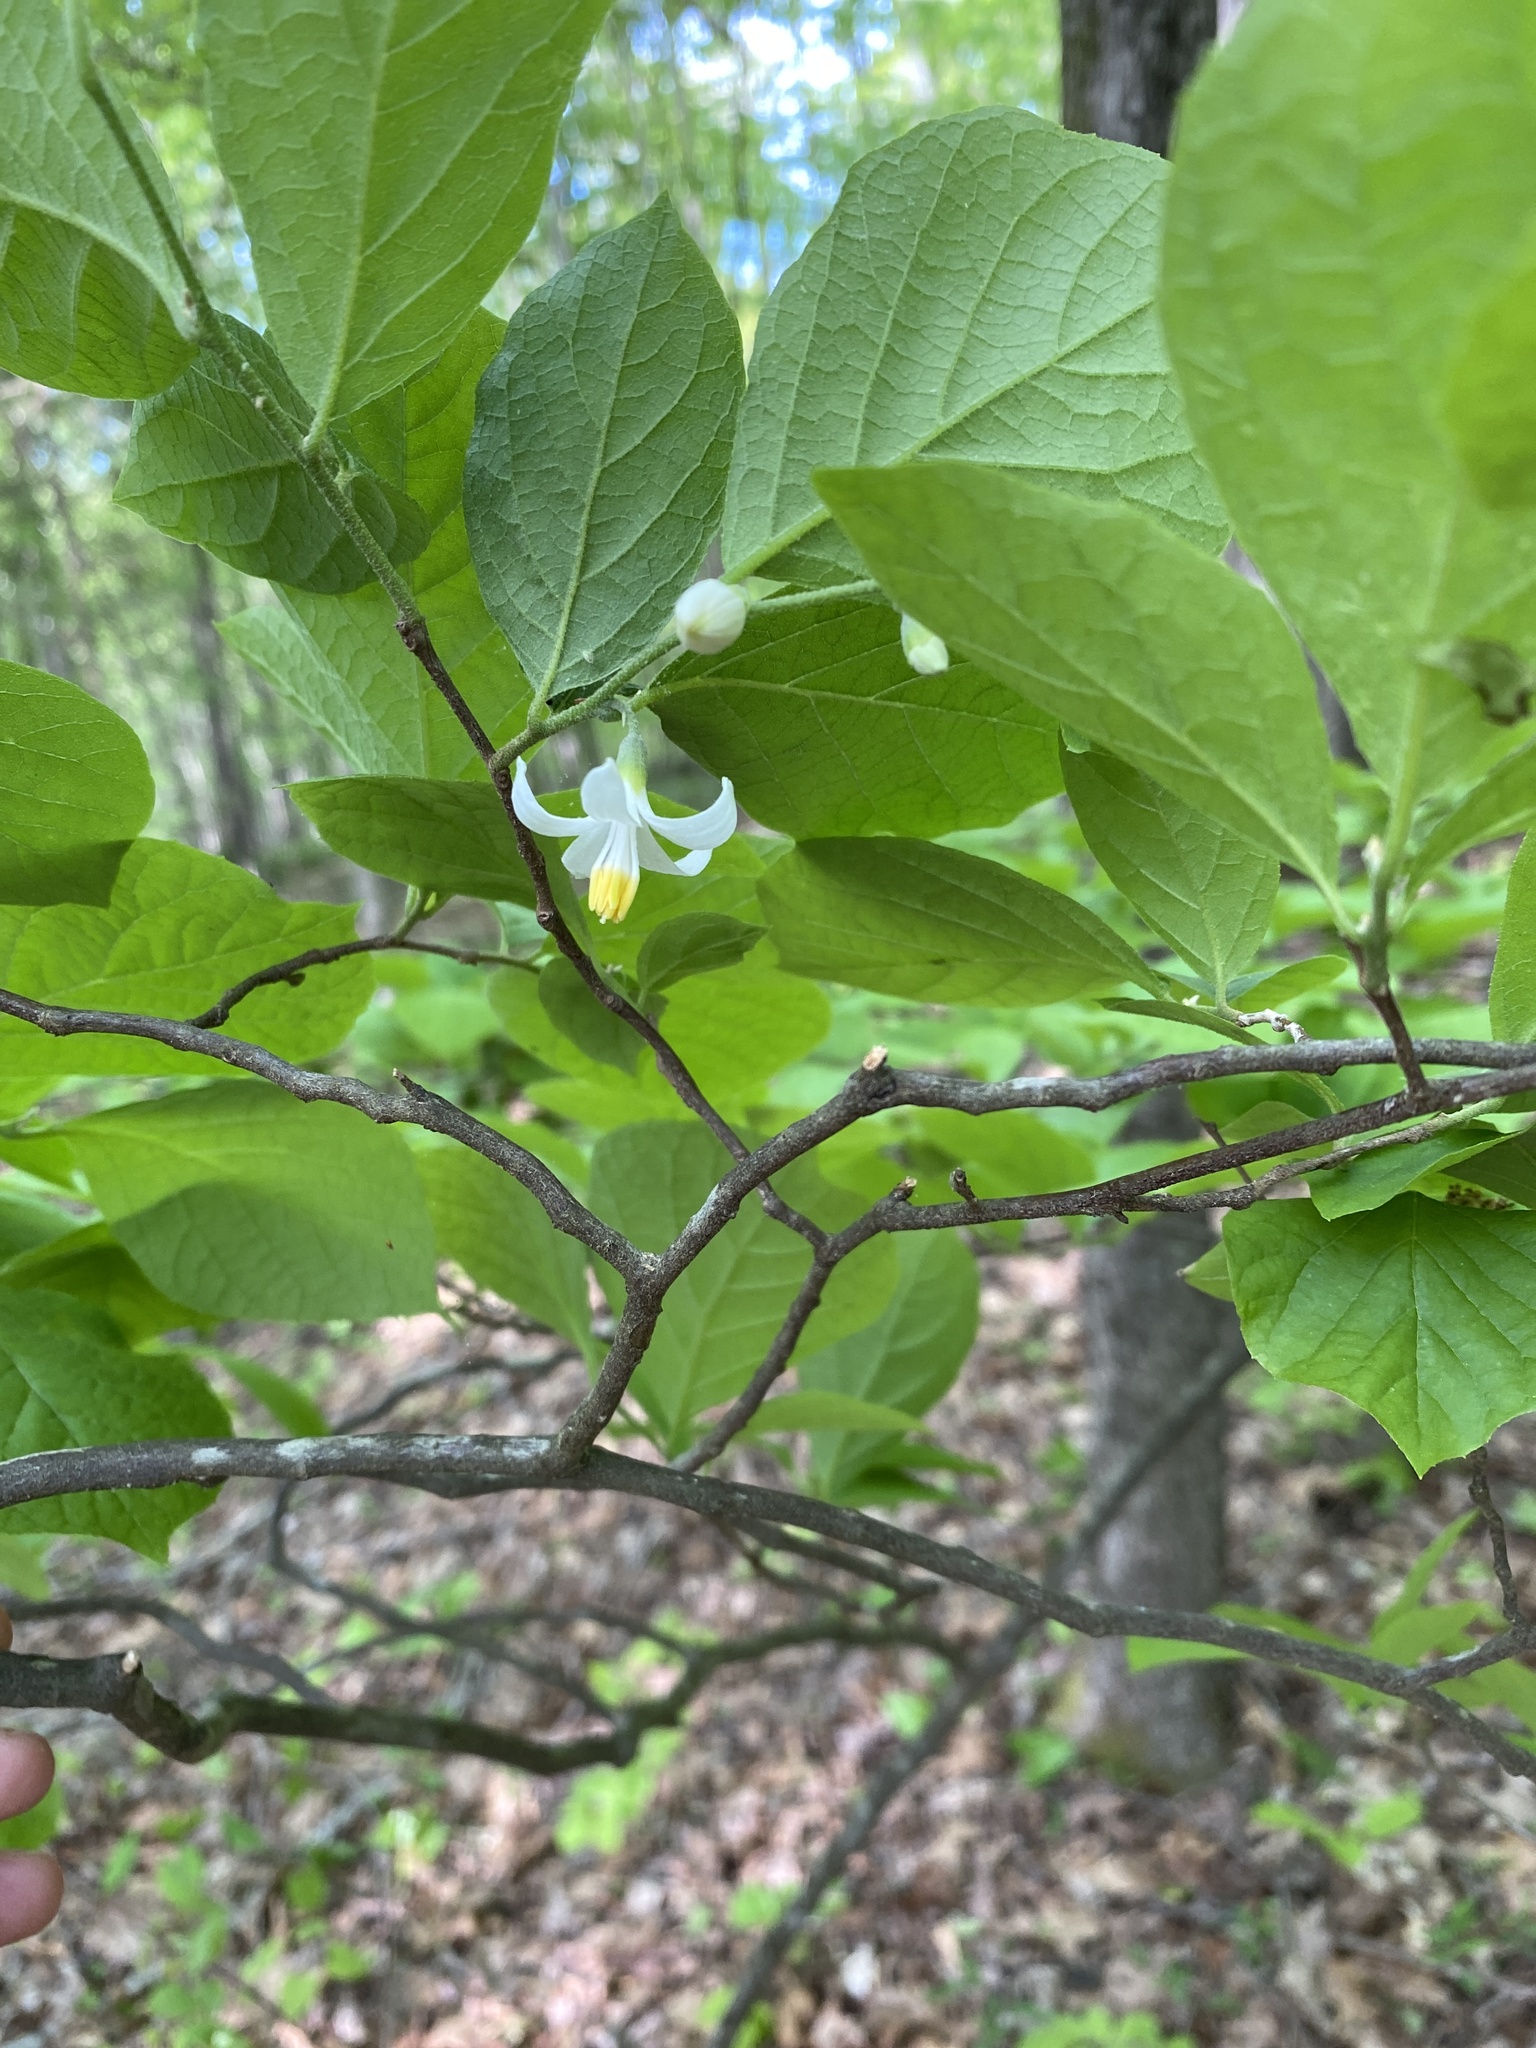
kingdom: Plantae
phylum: Tracheophyta
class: Magnoliopsida
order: Ericales
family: Styracaceae
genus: Styrax
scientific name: Styrax grandifolius
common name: Big-leaf snowbell
